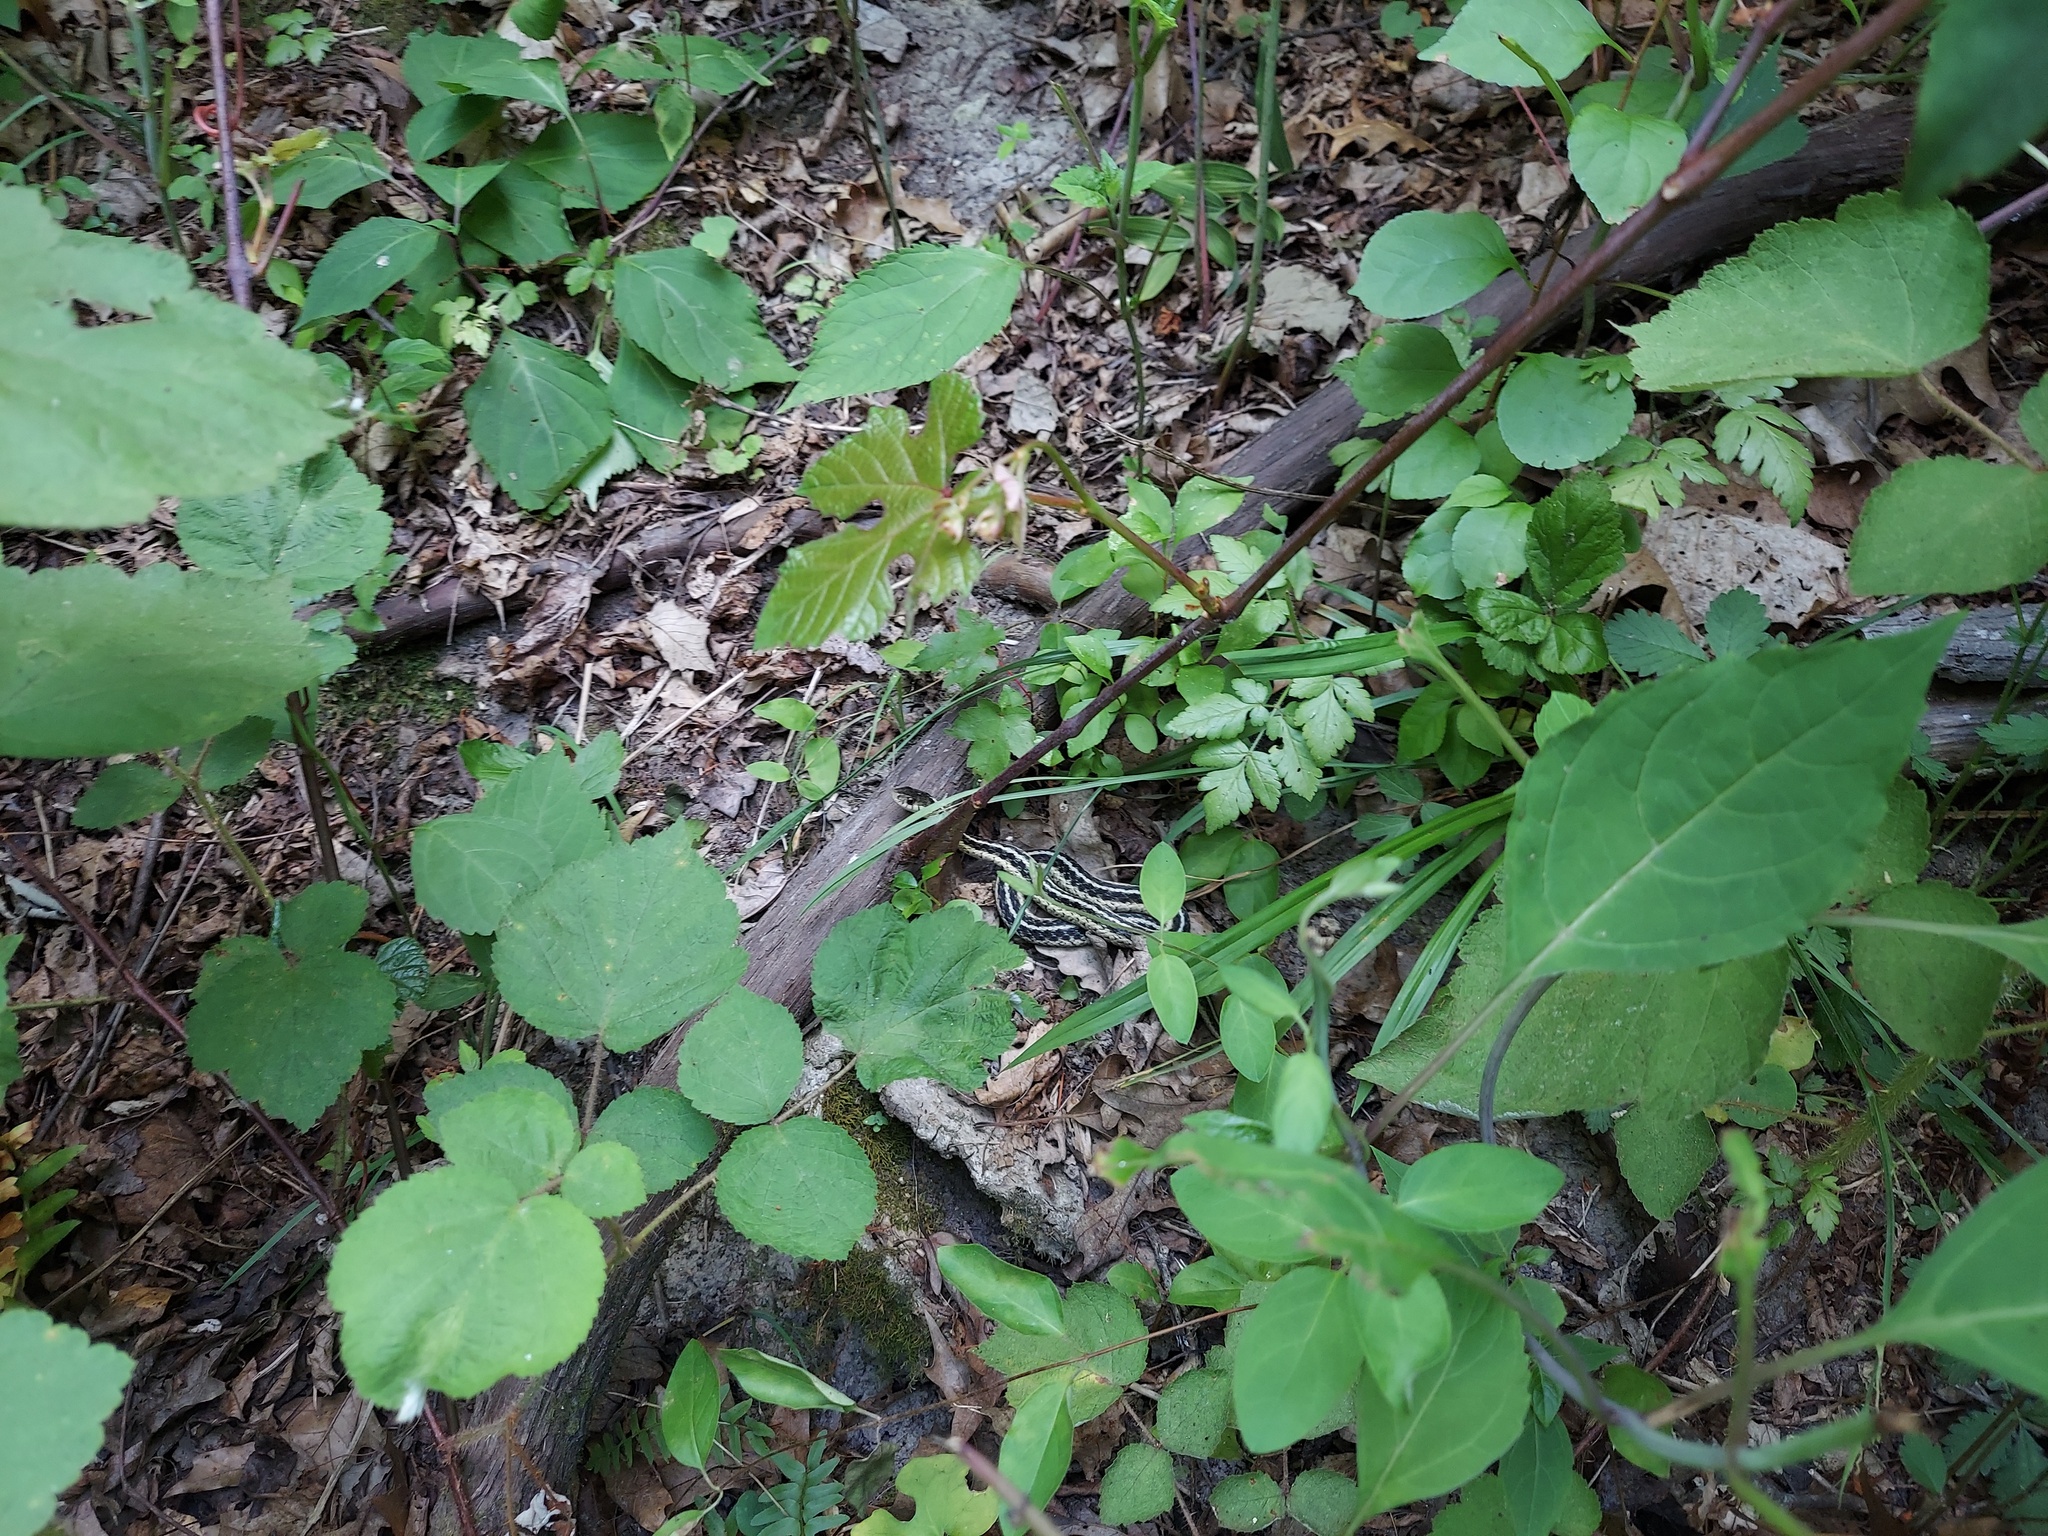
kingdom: Animalia
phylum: Chordata
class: Squamata
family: Colubridae
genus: Thamnophis
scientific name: Thamnophis sirtalis
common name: Common garter snake
